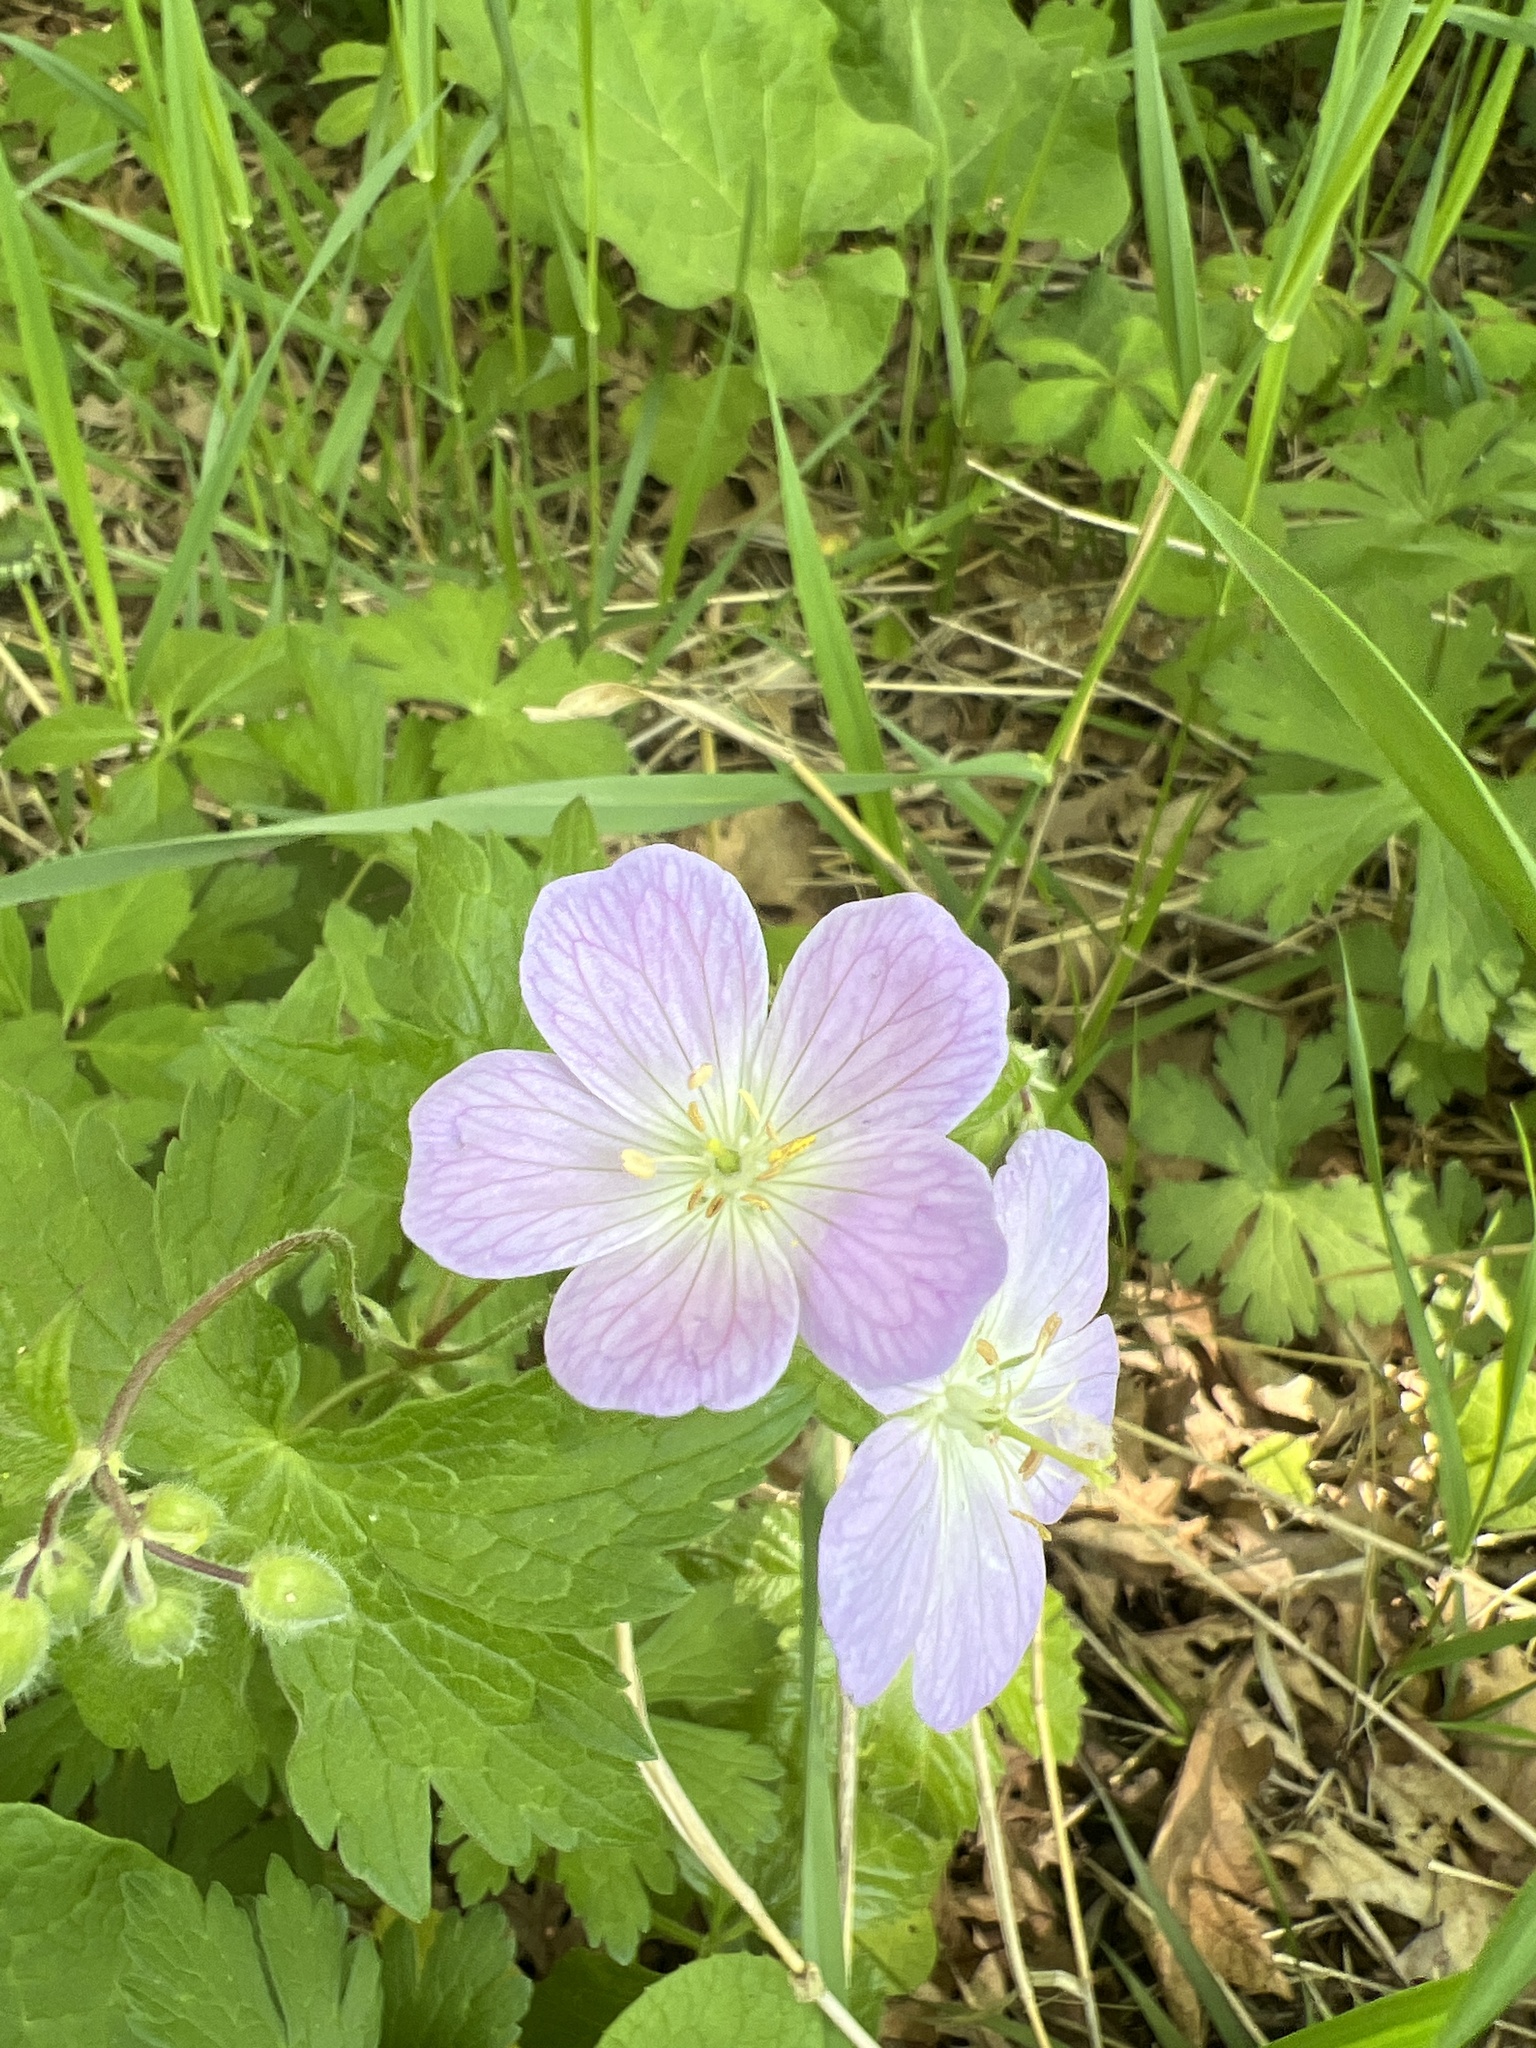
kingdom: Plantae
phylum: Tracheophyta
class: Magnoliopsida
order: Geraniales
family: Geraniaceae
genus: Geranium
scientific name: Geranium maculatum
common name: Spotted geranium
